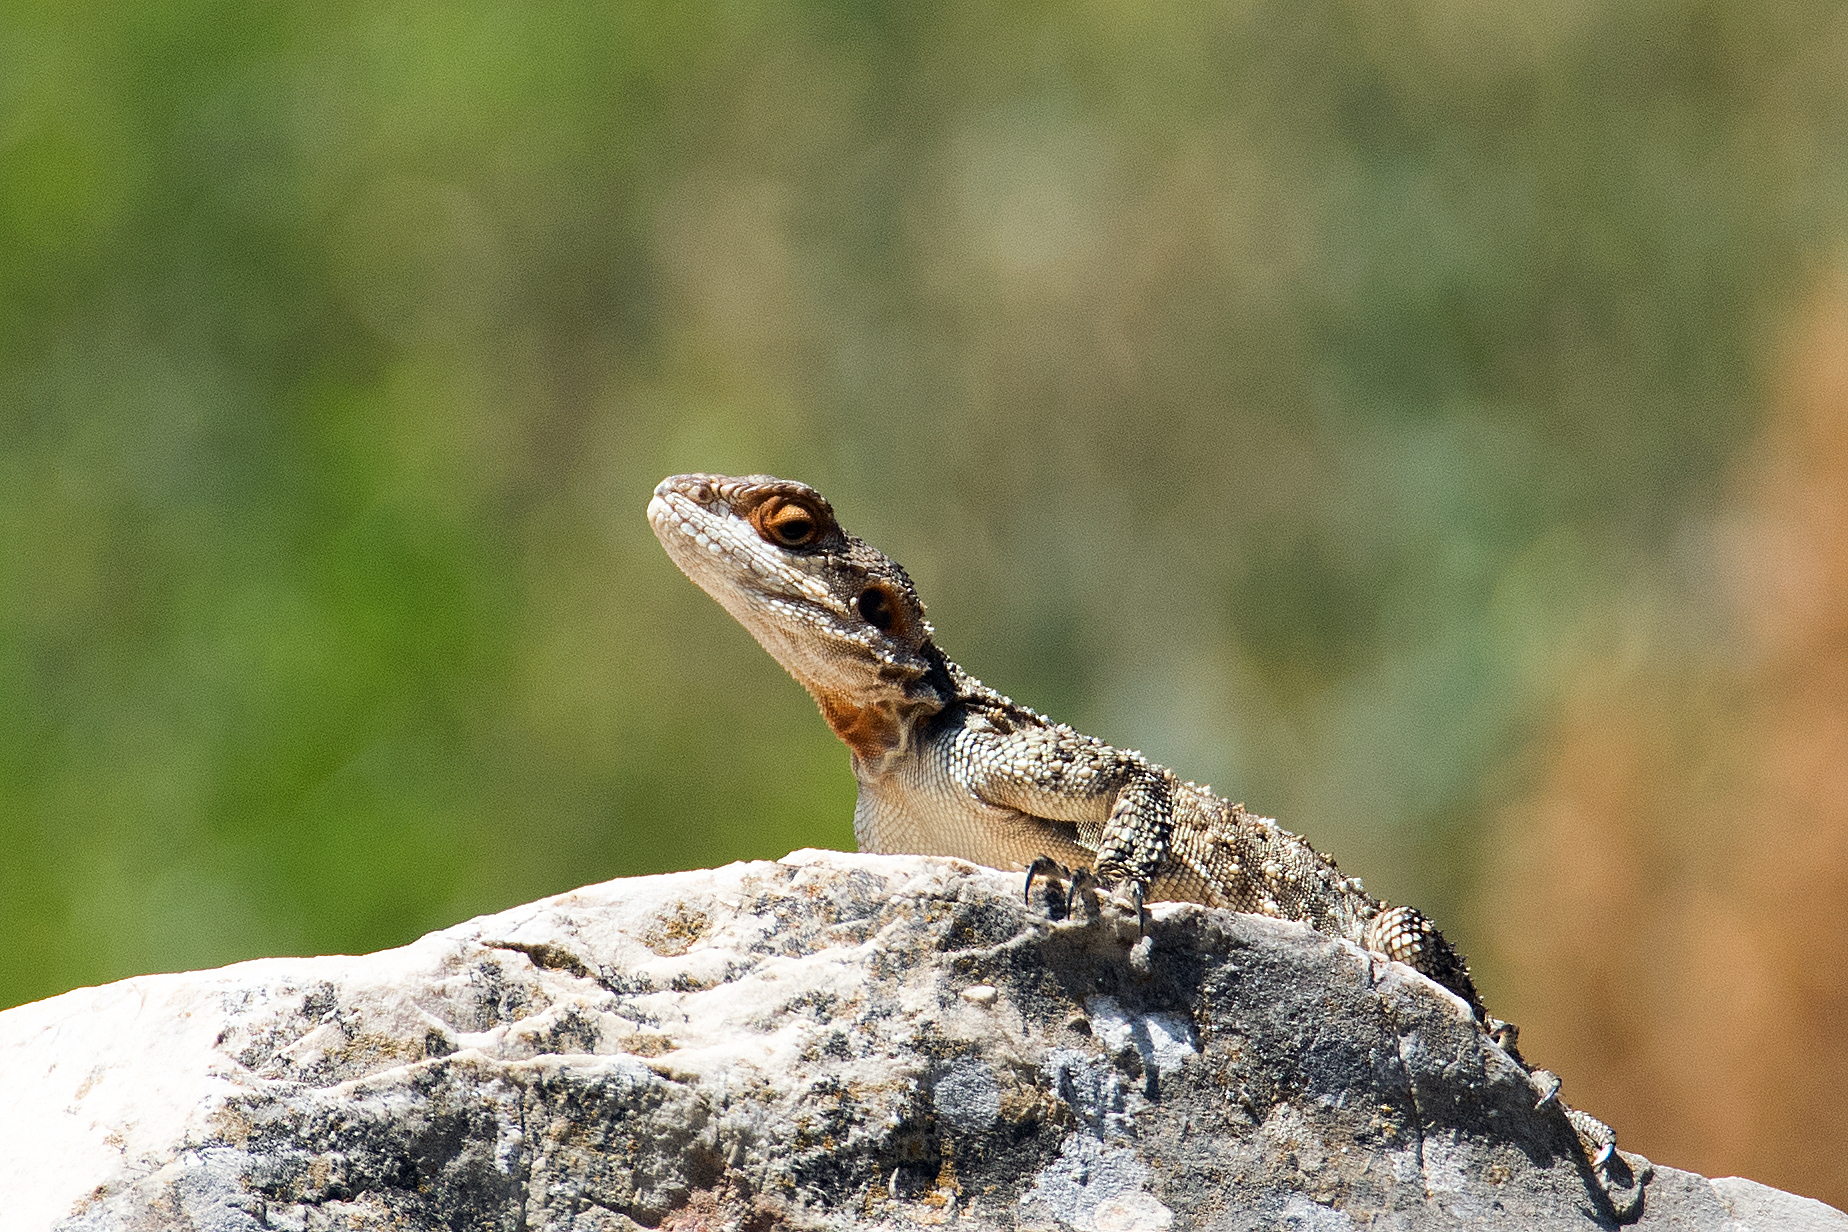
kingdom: Animalia
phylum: Chordata
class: Squamata
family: Agamidae
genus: Laudakia
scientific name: Laudakia vulgaris
